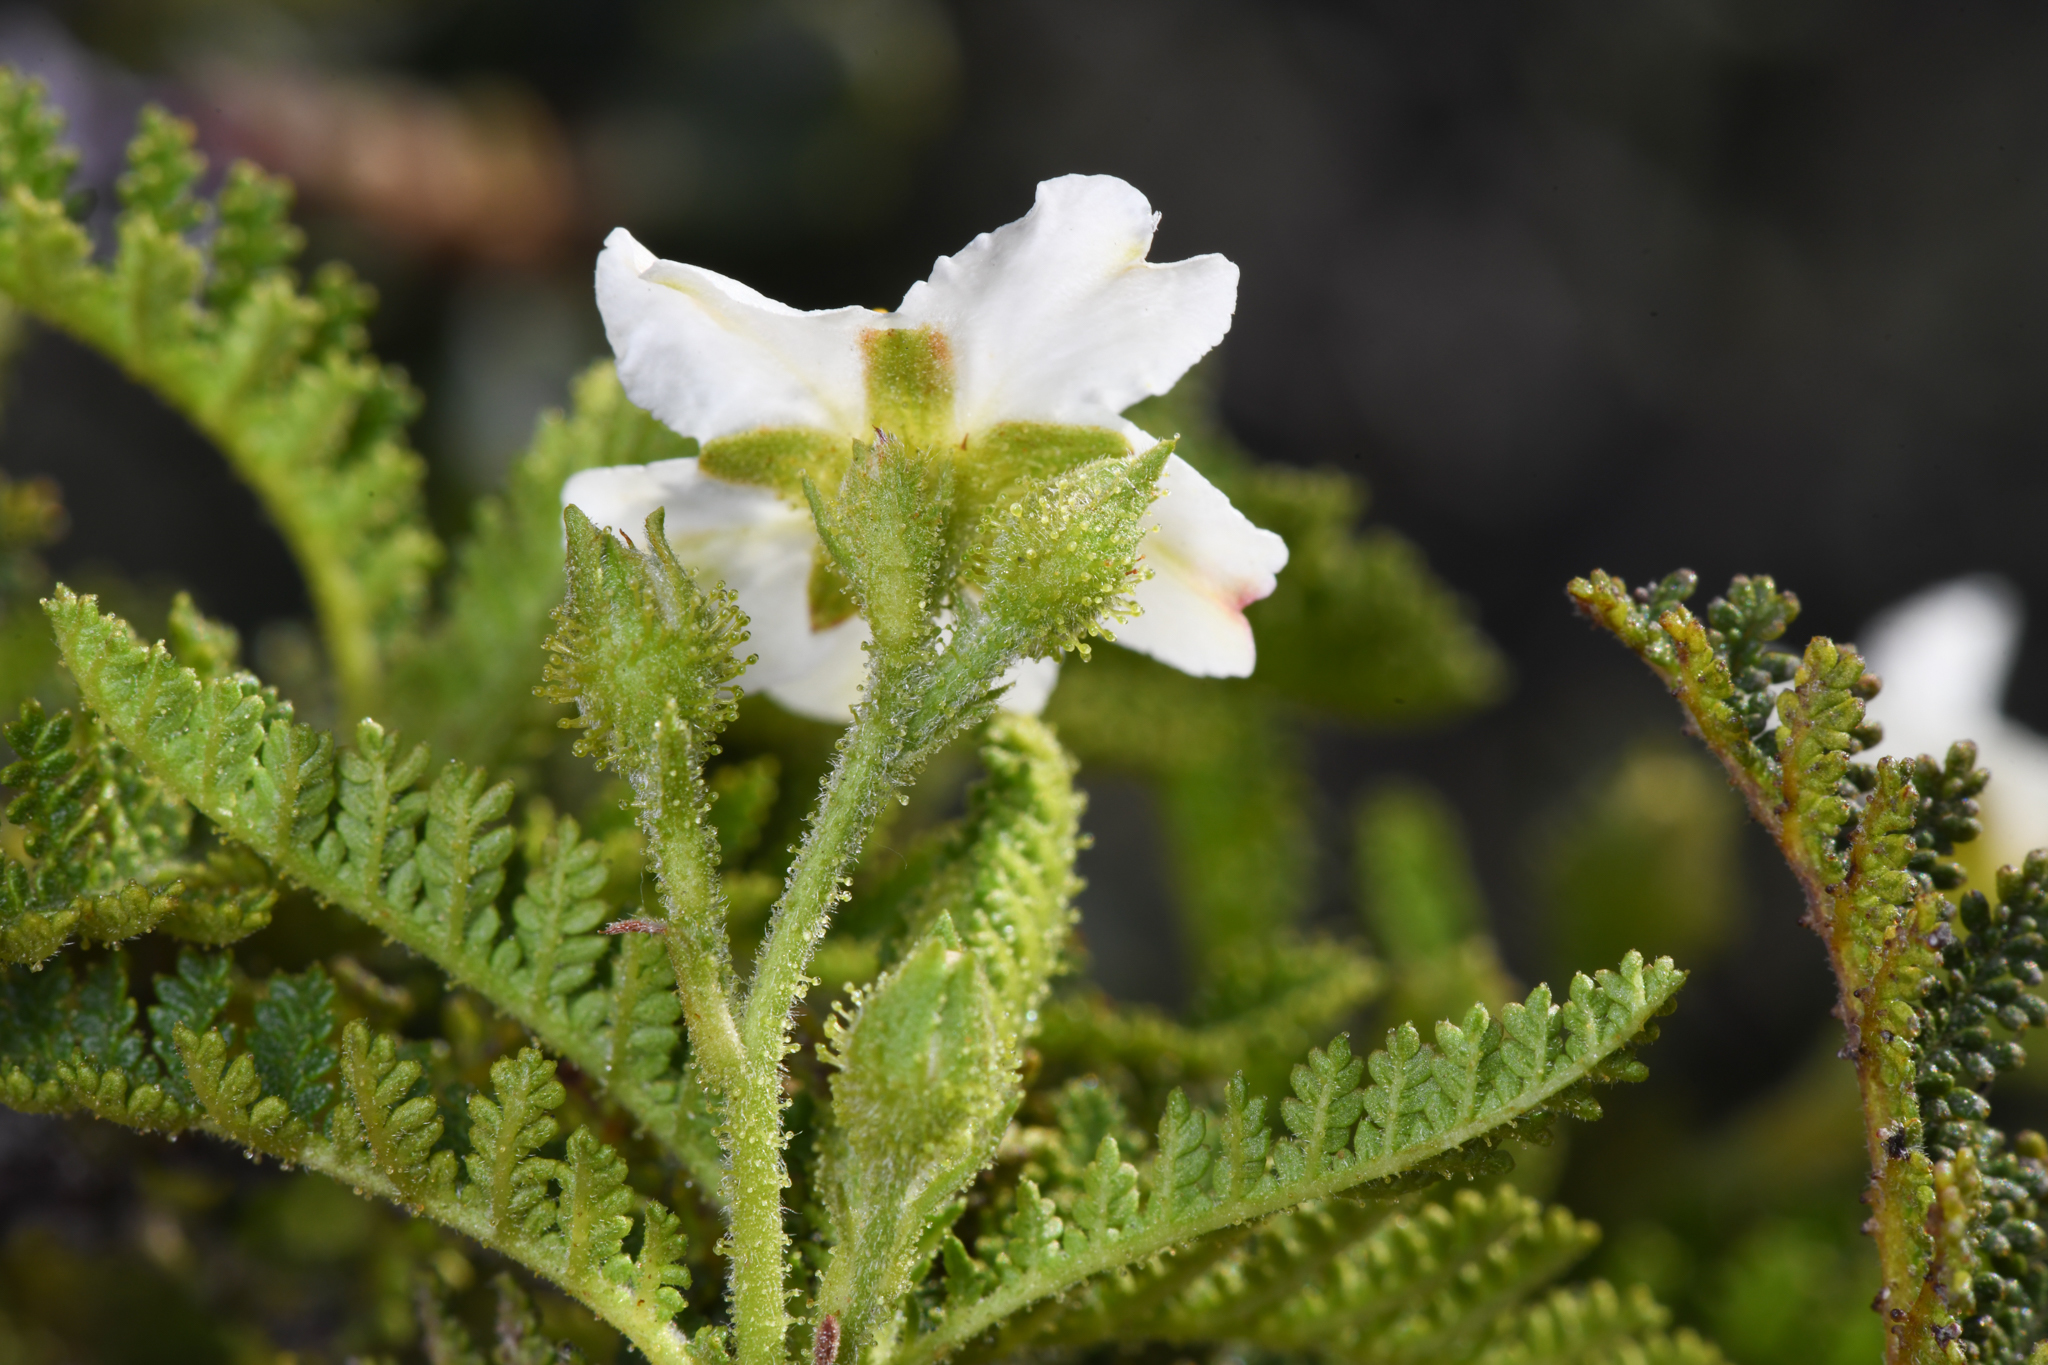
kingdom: Plantae
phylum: Tracheophyta
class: Magnoliopsida
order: Rosales
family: Rosaceae
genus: Chamaebatia
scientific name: Chamaebatia australis
